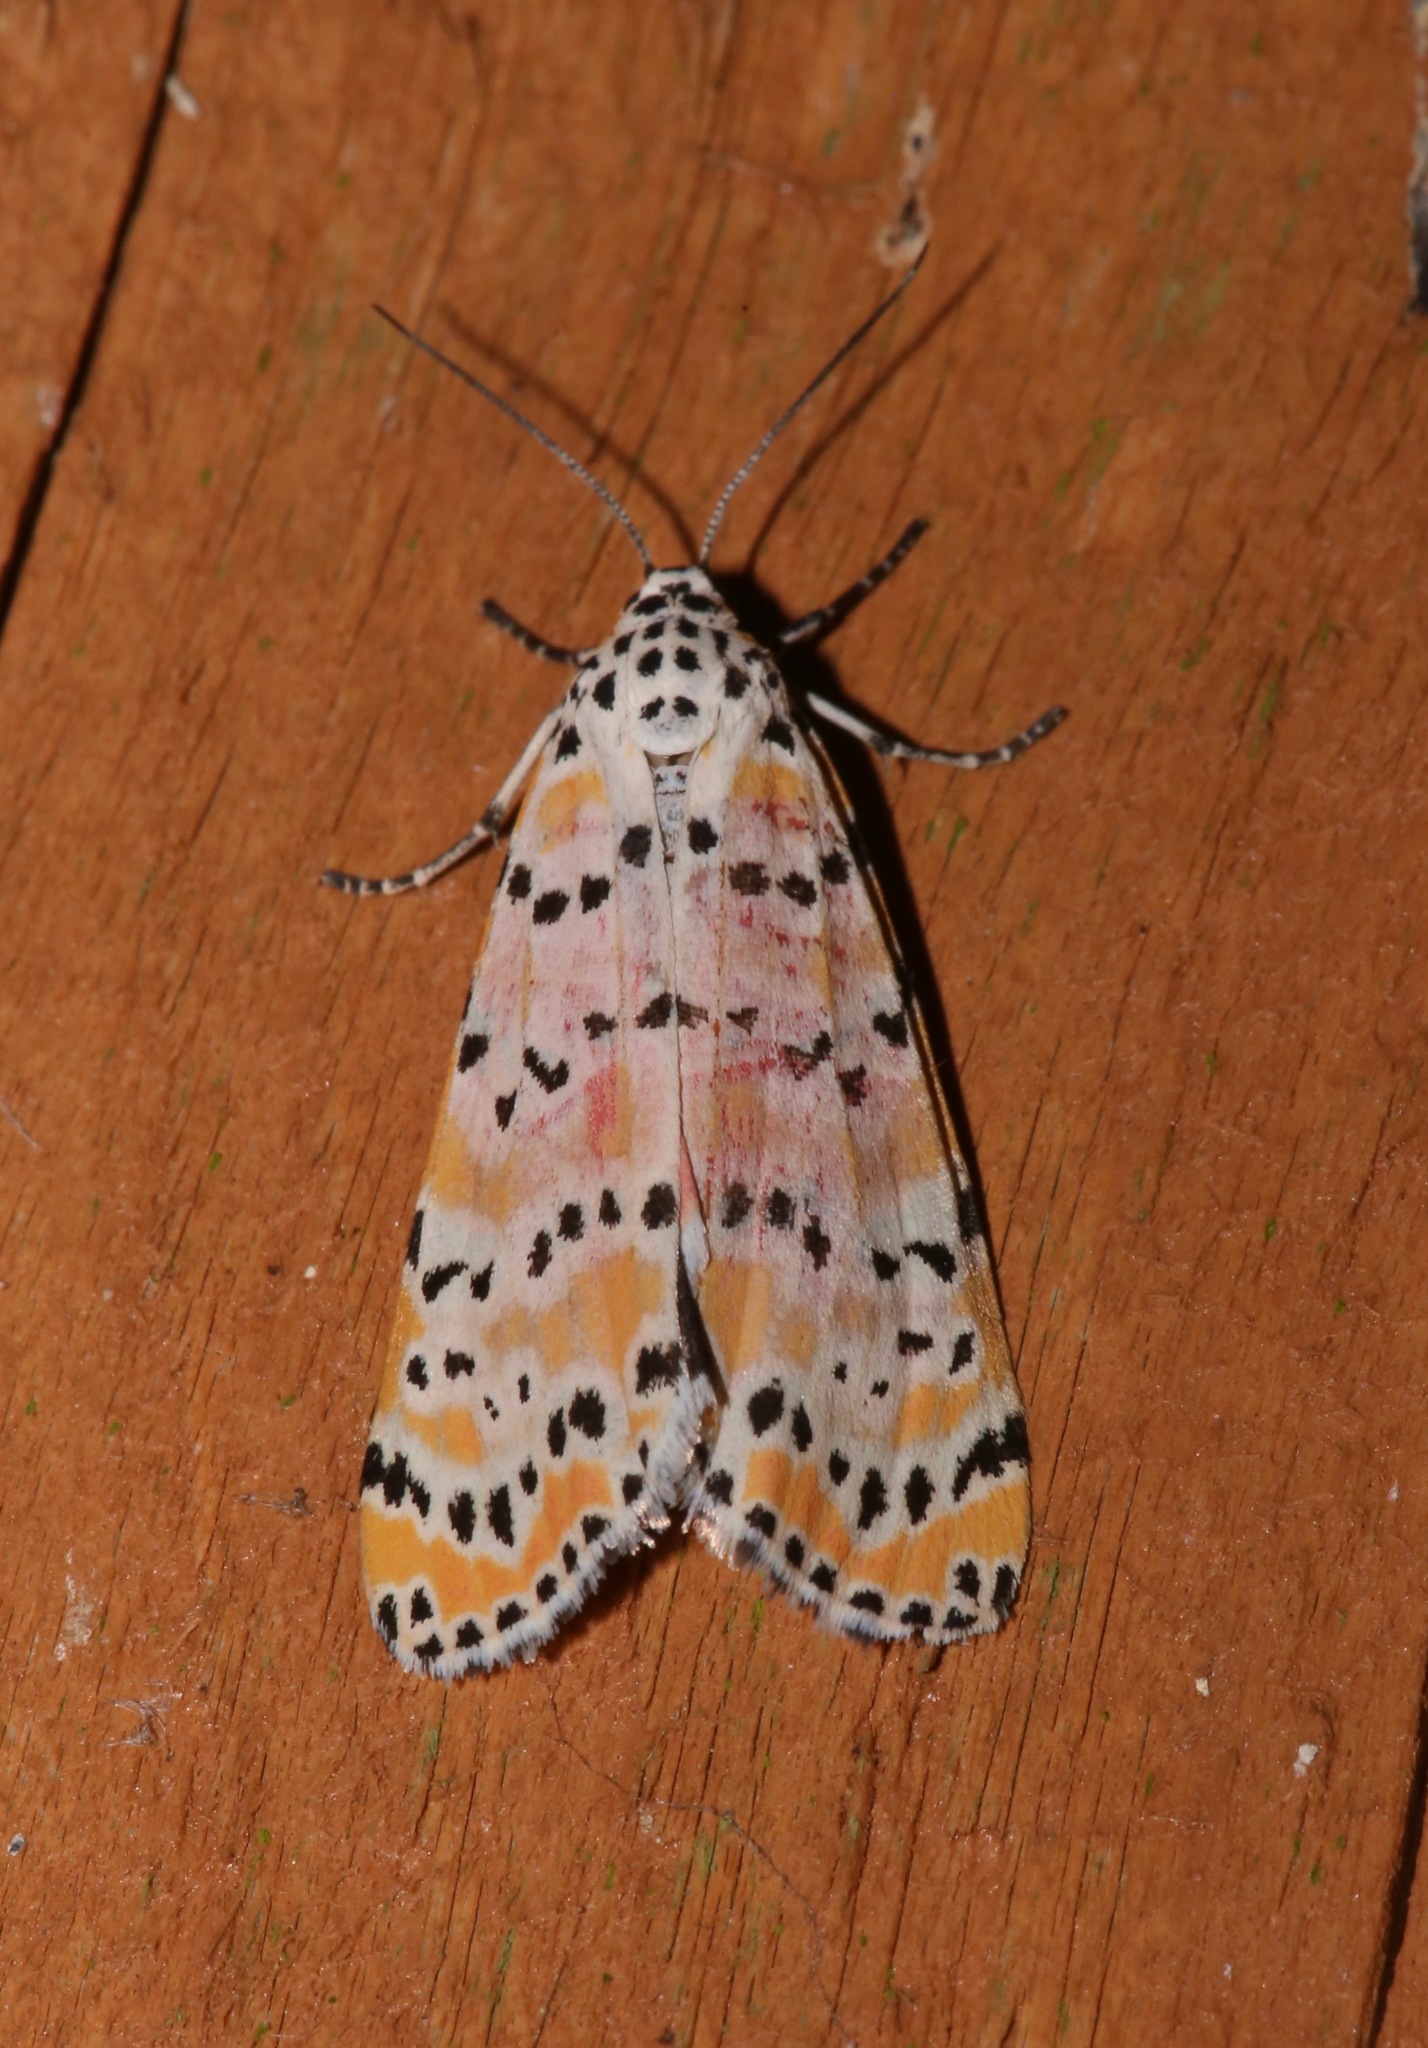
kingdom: Animalia
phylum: Arthropoda
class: Insecta
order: Lepidoptera
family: Erebidae
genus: Utetheisa
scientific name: Utetheisa ornatrix
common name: Beautiful utetheisa
